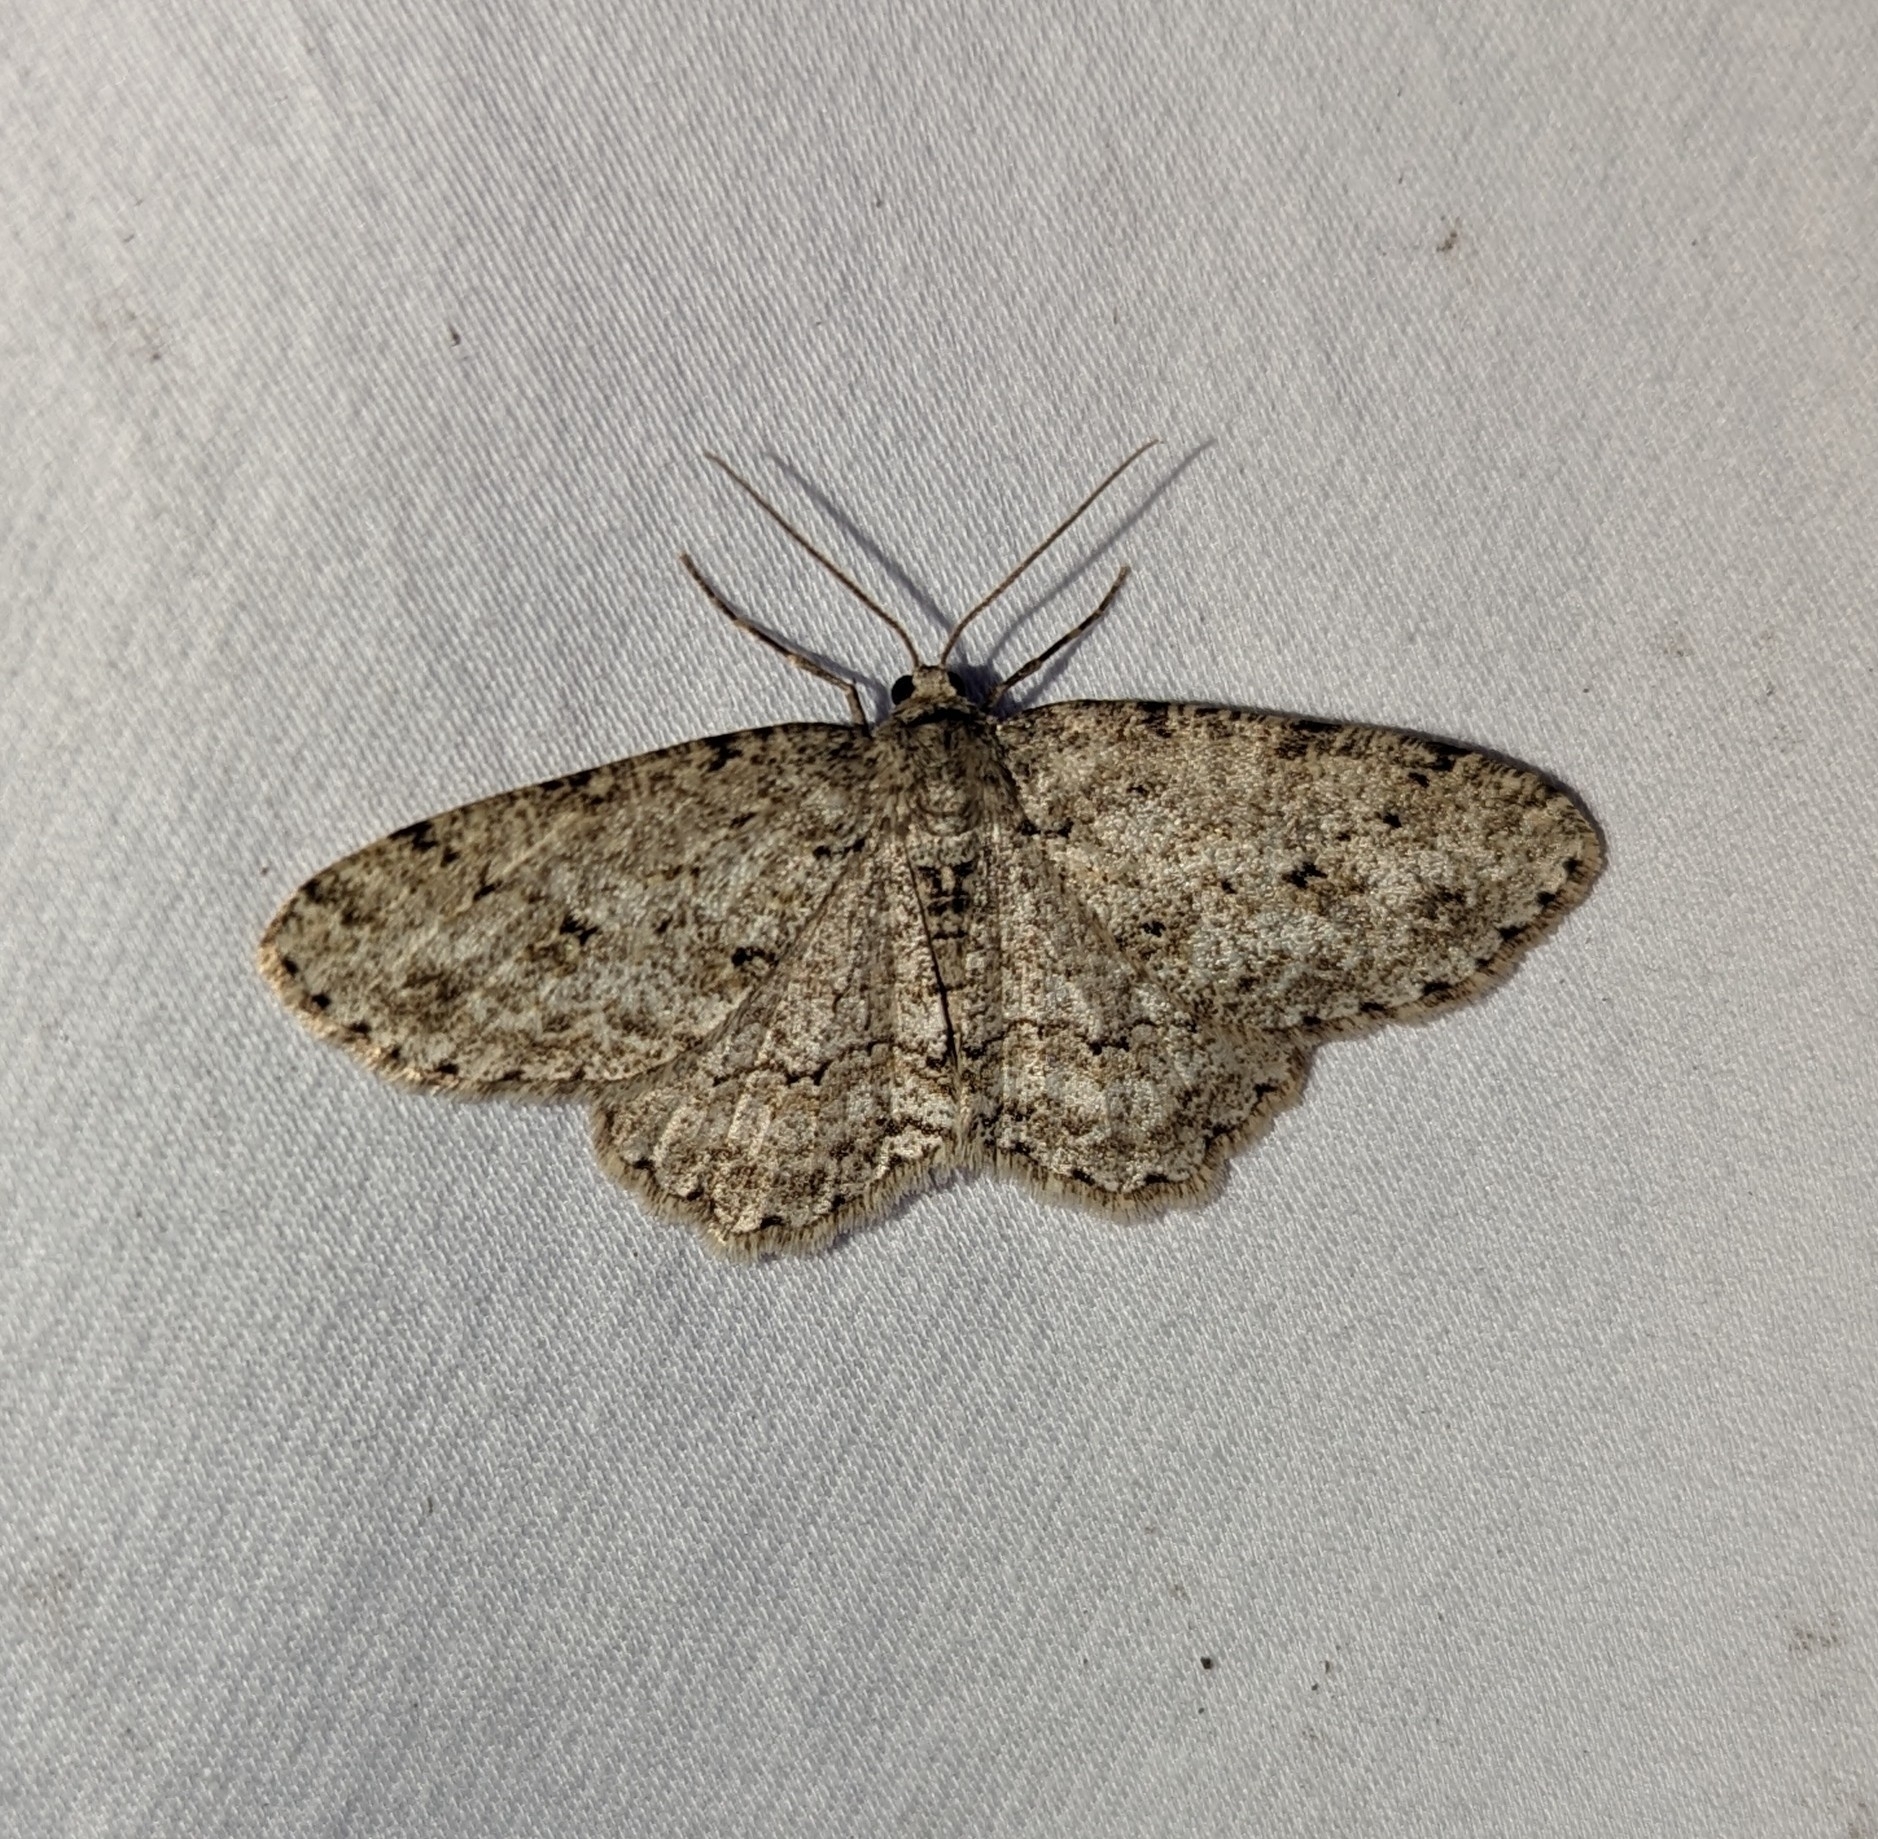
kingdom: Animalia
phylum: Arthropoda
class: Insecta
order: Lepidoptera
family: Geometridae
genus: Ectropis
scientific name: Ectropis crepuscularia
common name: Engrailed
